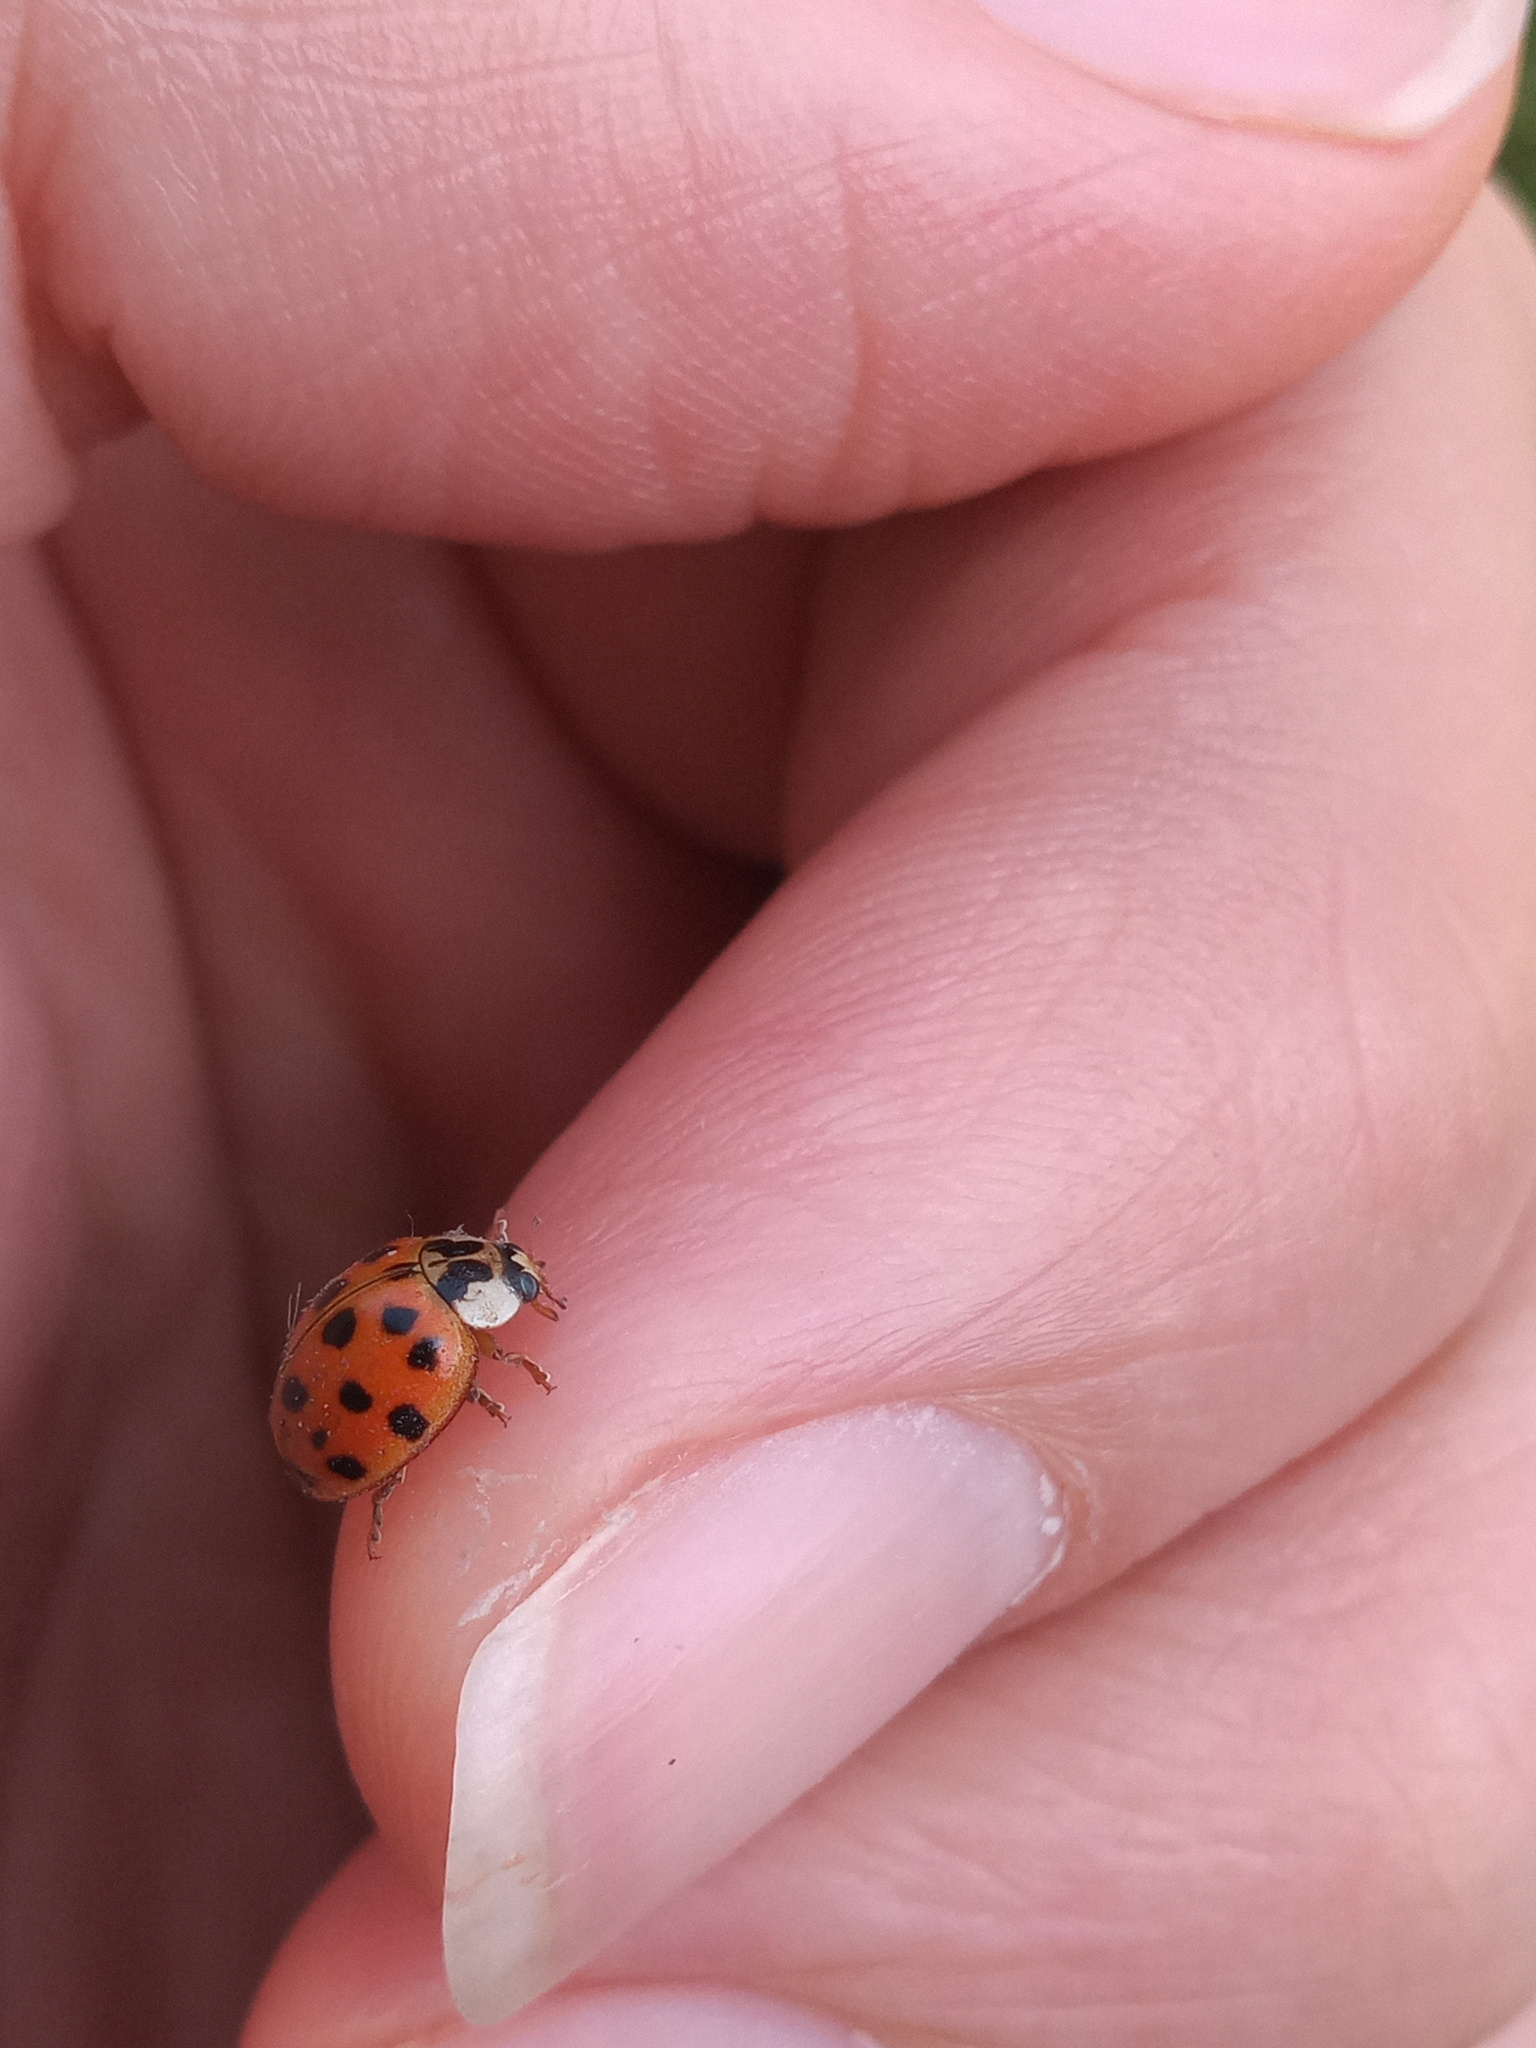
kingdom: Animalia
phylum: Arthropoda
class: Insecta
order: Coleoptera
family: Coccinellidae
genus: Harmonia
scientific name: Harmonia axyridis
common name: Harlequin ladybird
